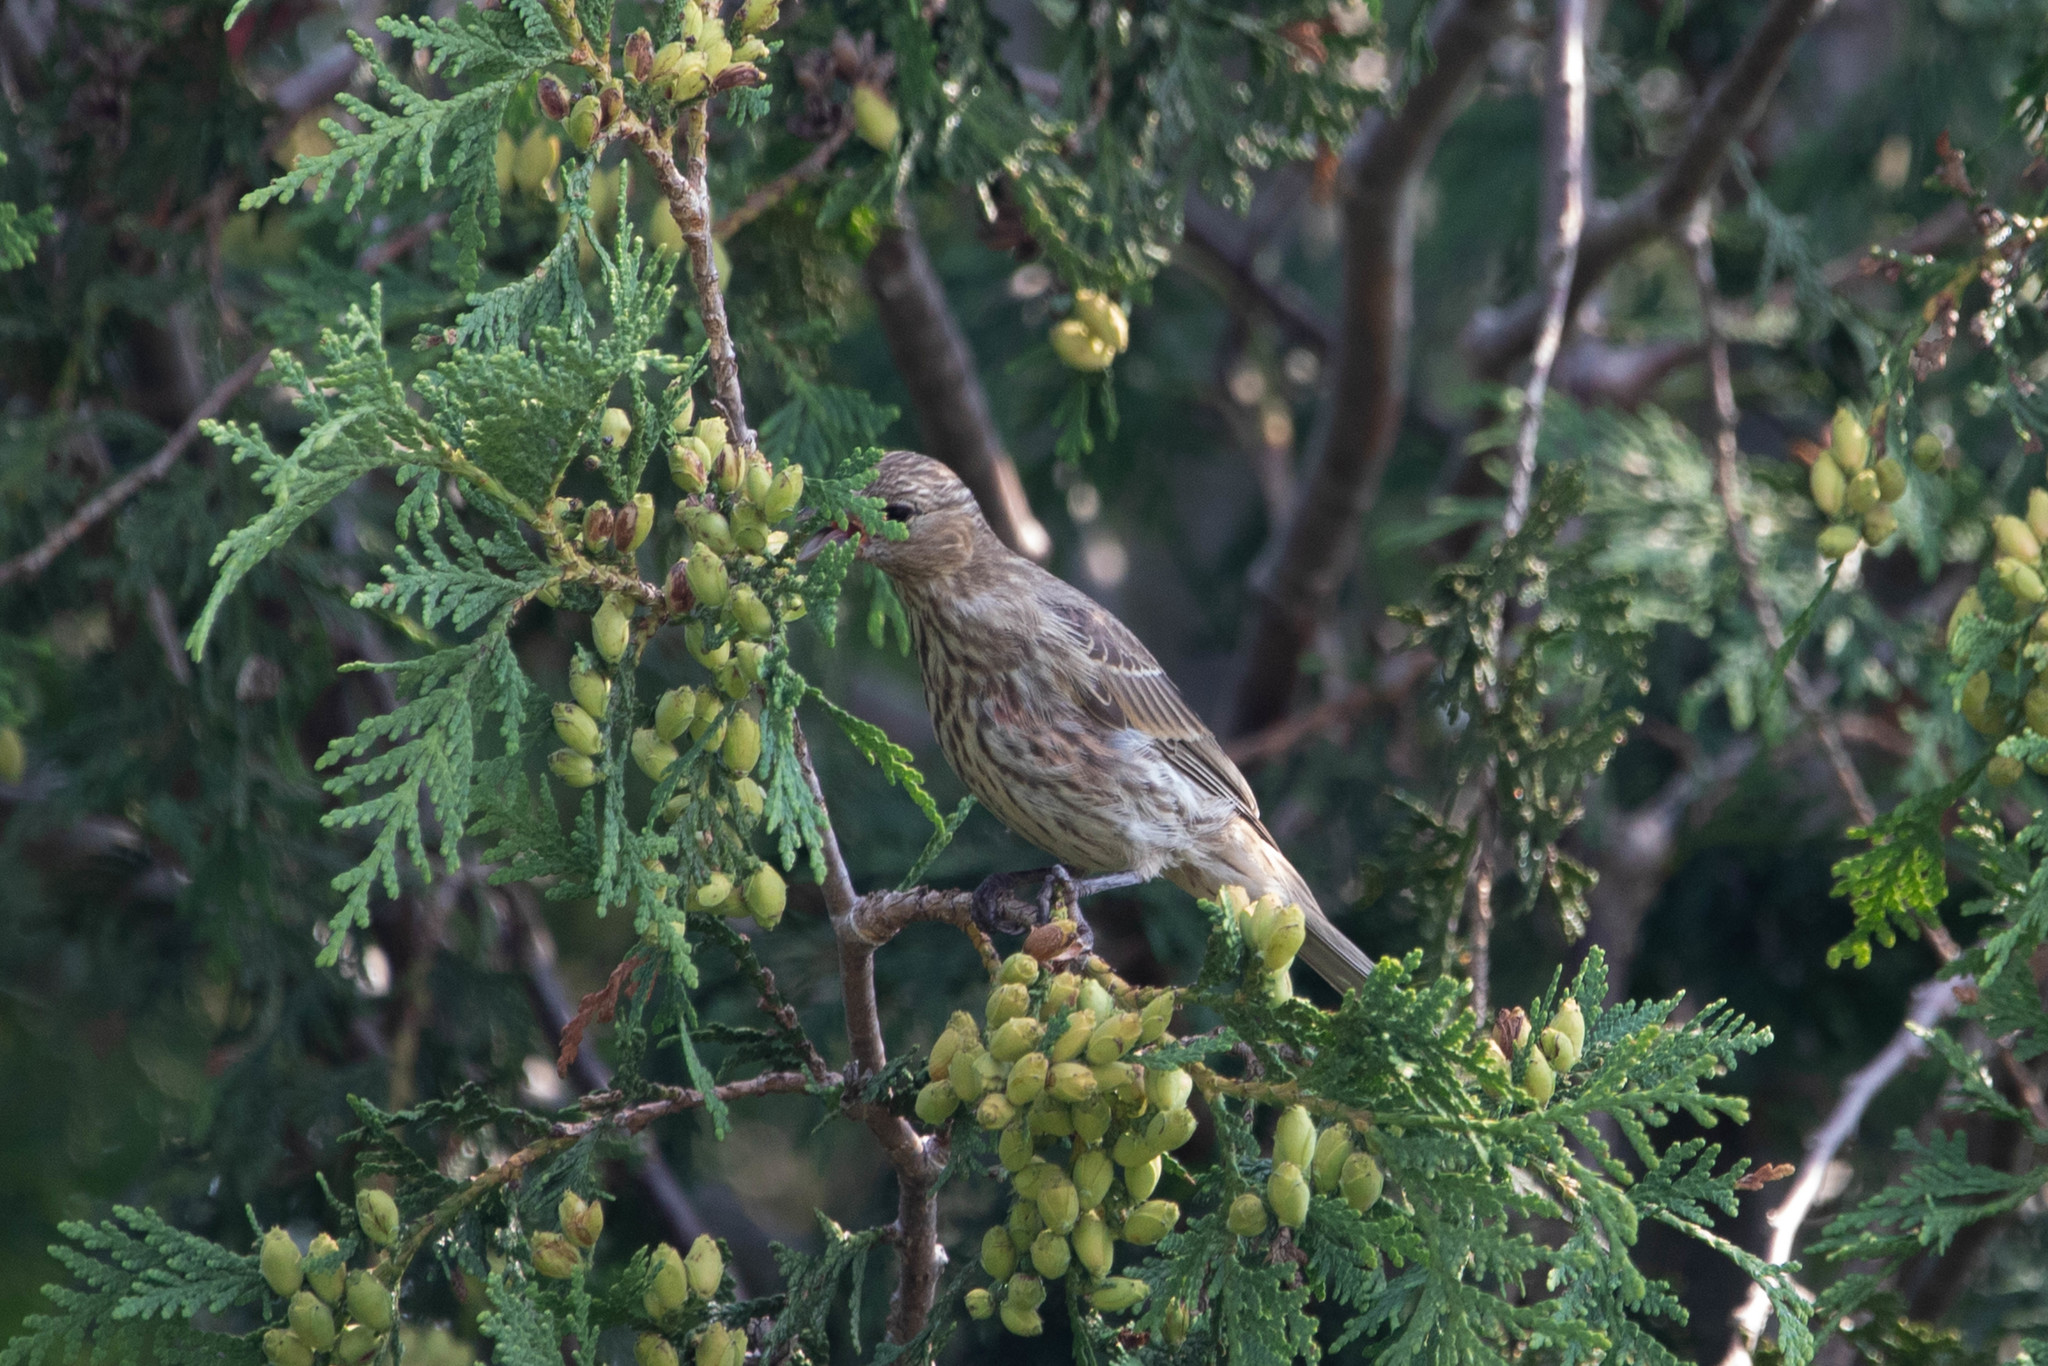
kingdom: Animalia
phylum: Chordata
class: Aves
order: Passeriformes
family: Fringillidae
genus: Haemorhous
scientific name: Haemorhous mexicanus
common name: House finch
